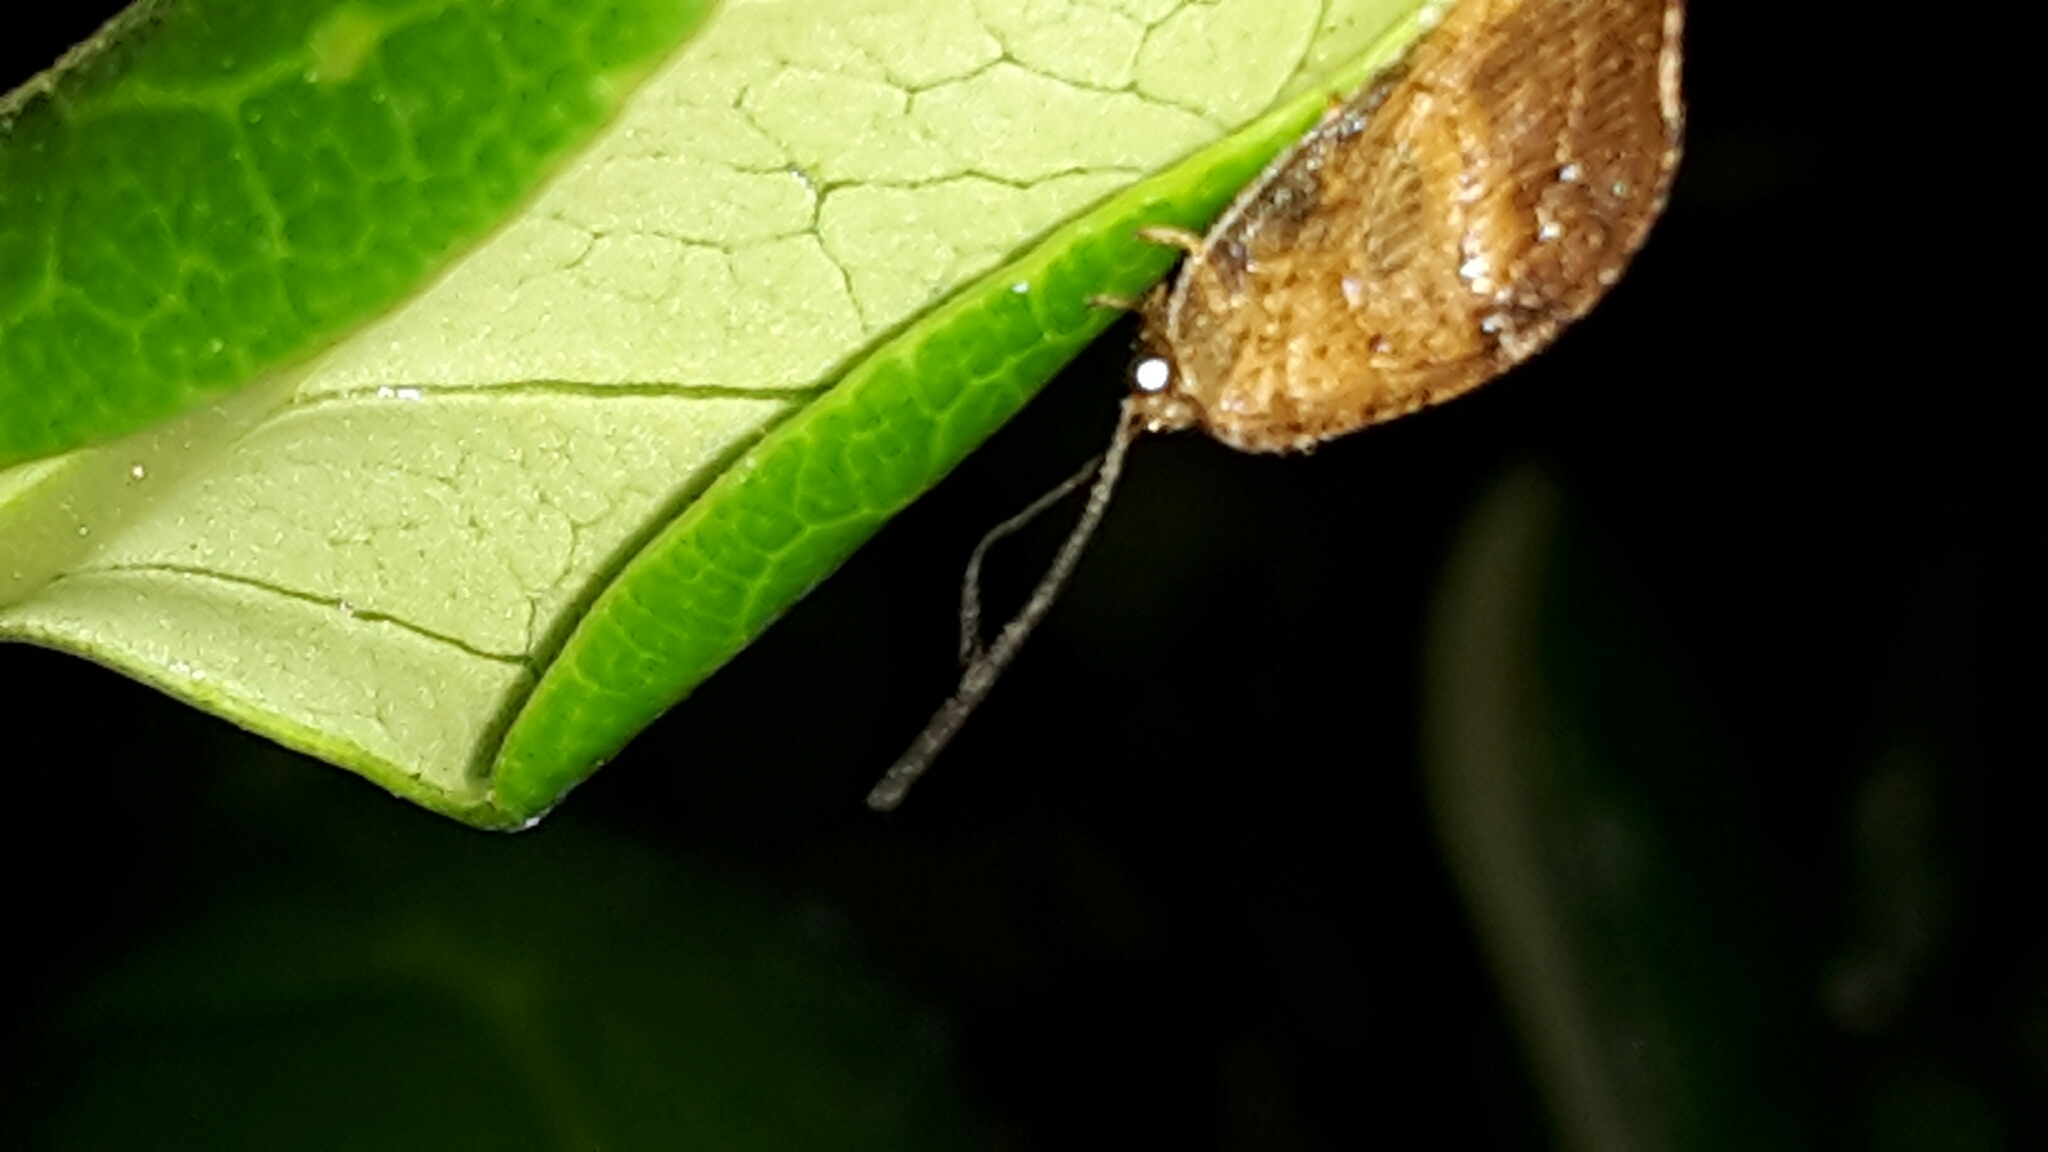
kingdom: Animalia
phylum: Arthropoda
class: Insecta
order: Neuroptera
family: Hemerobiidae
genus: Drepanacra
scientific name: Drepanacra binocula
